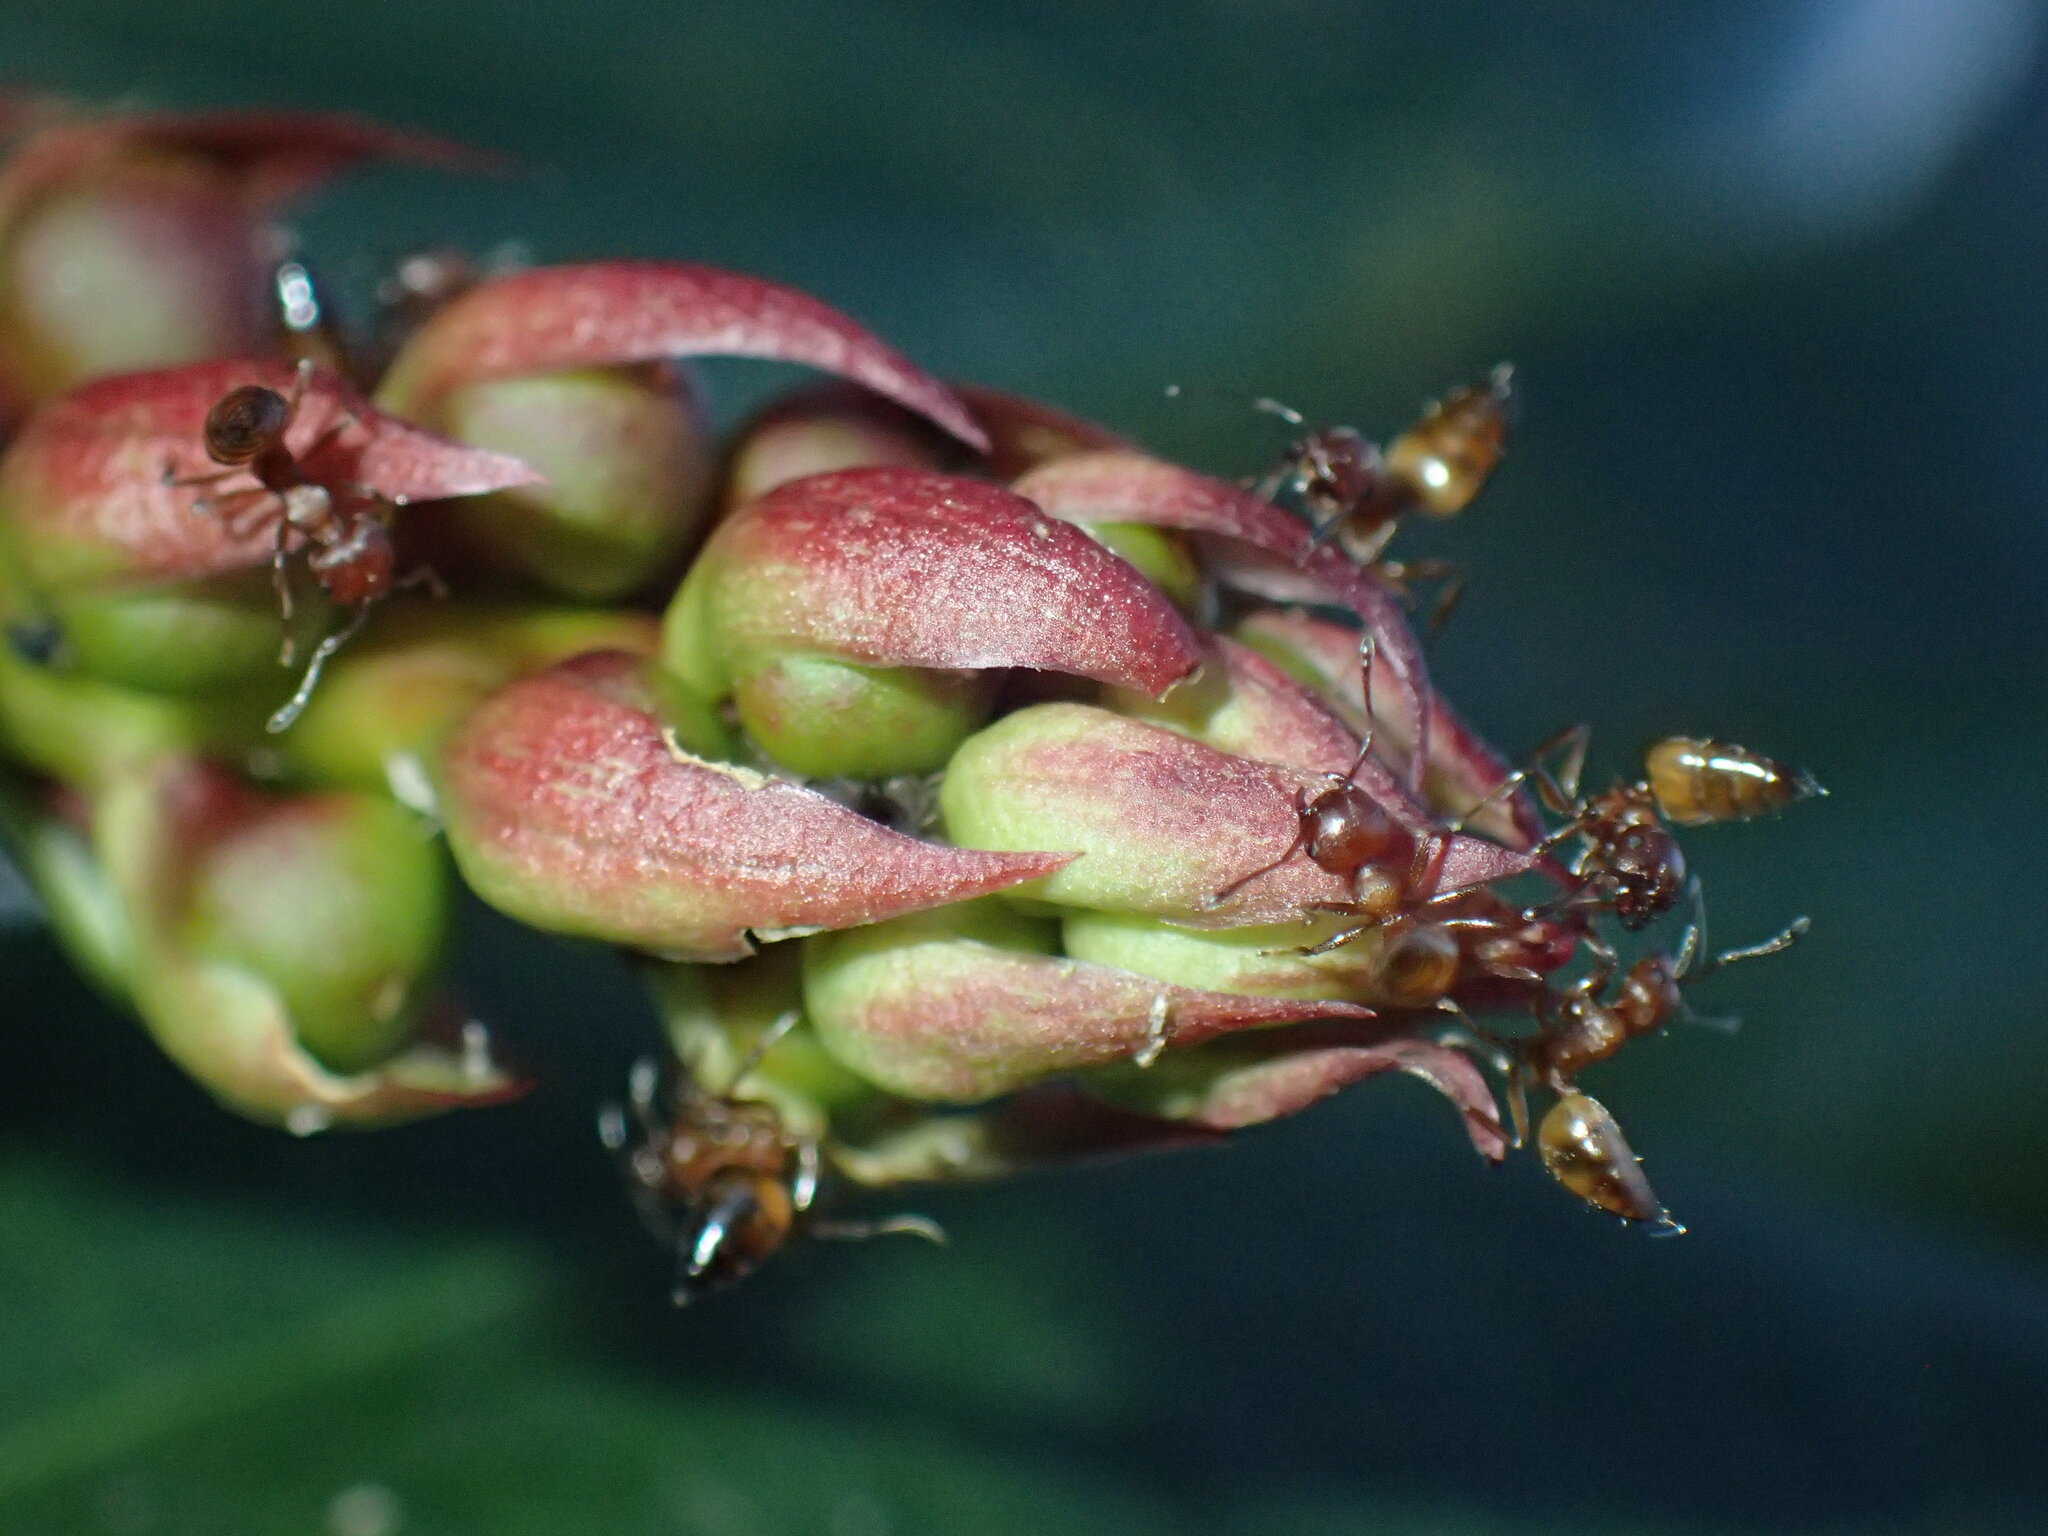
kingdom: Animalia
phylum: Arthropoda
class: Insecta
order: Hymenoptera
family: Formicidae
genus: Crematogaster
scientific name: Crematogaster castanea
